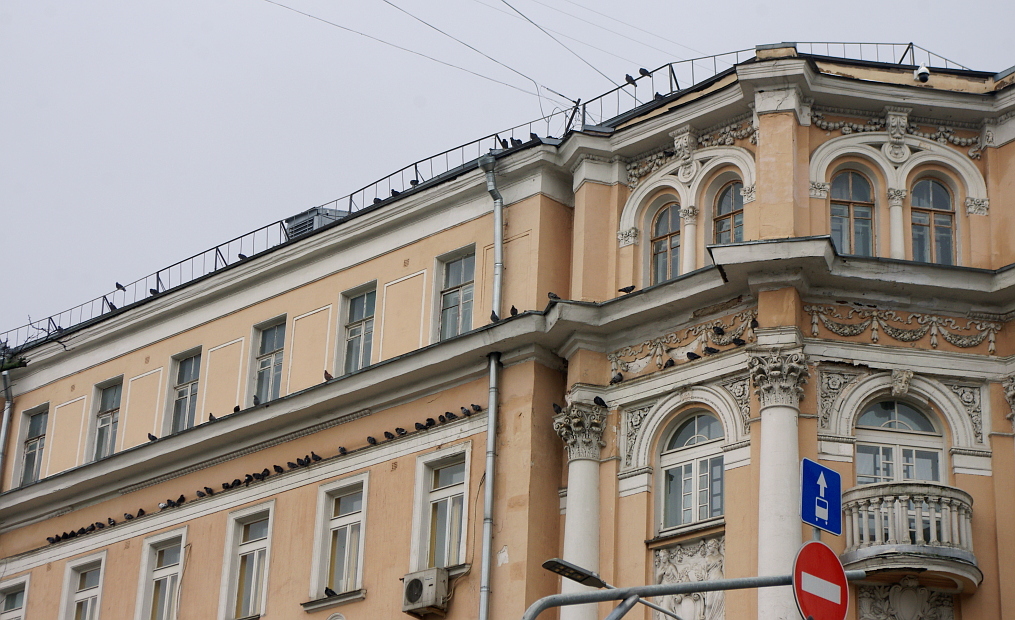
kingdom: Animalia
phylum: Chordata
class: Aves
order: Columbiformes
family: Columbidae
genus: Columba
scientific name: Columba livia
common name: Rock pigeon
